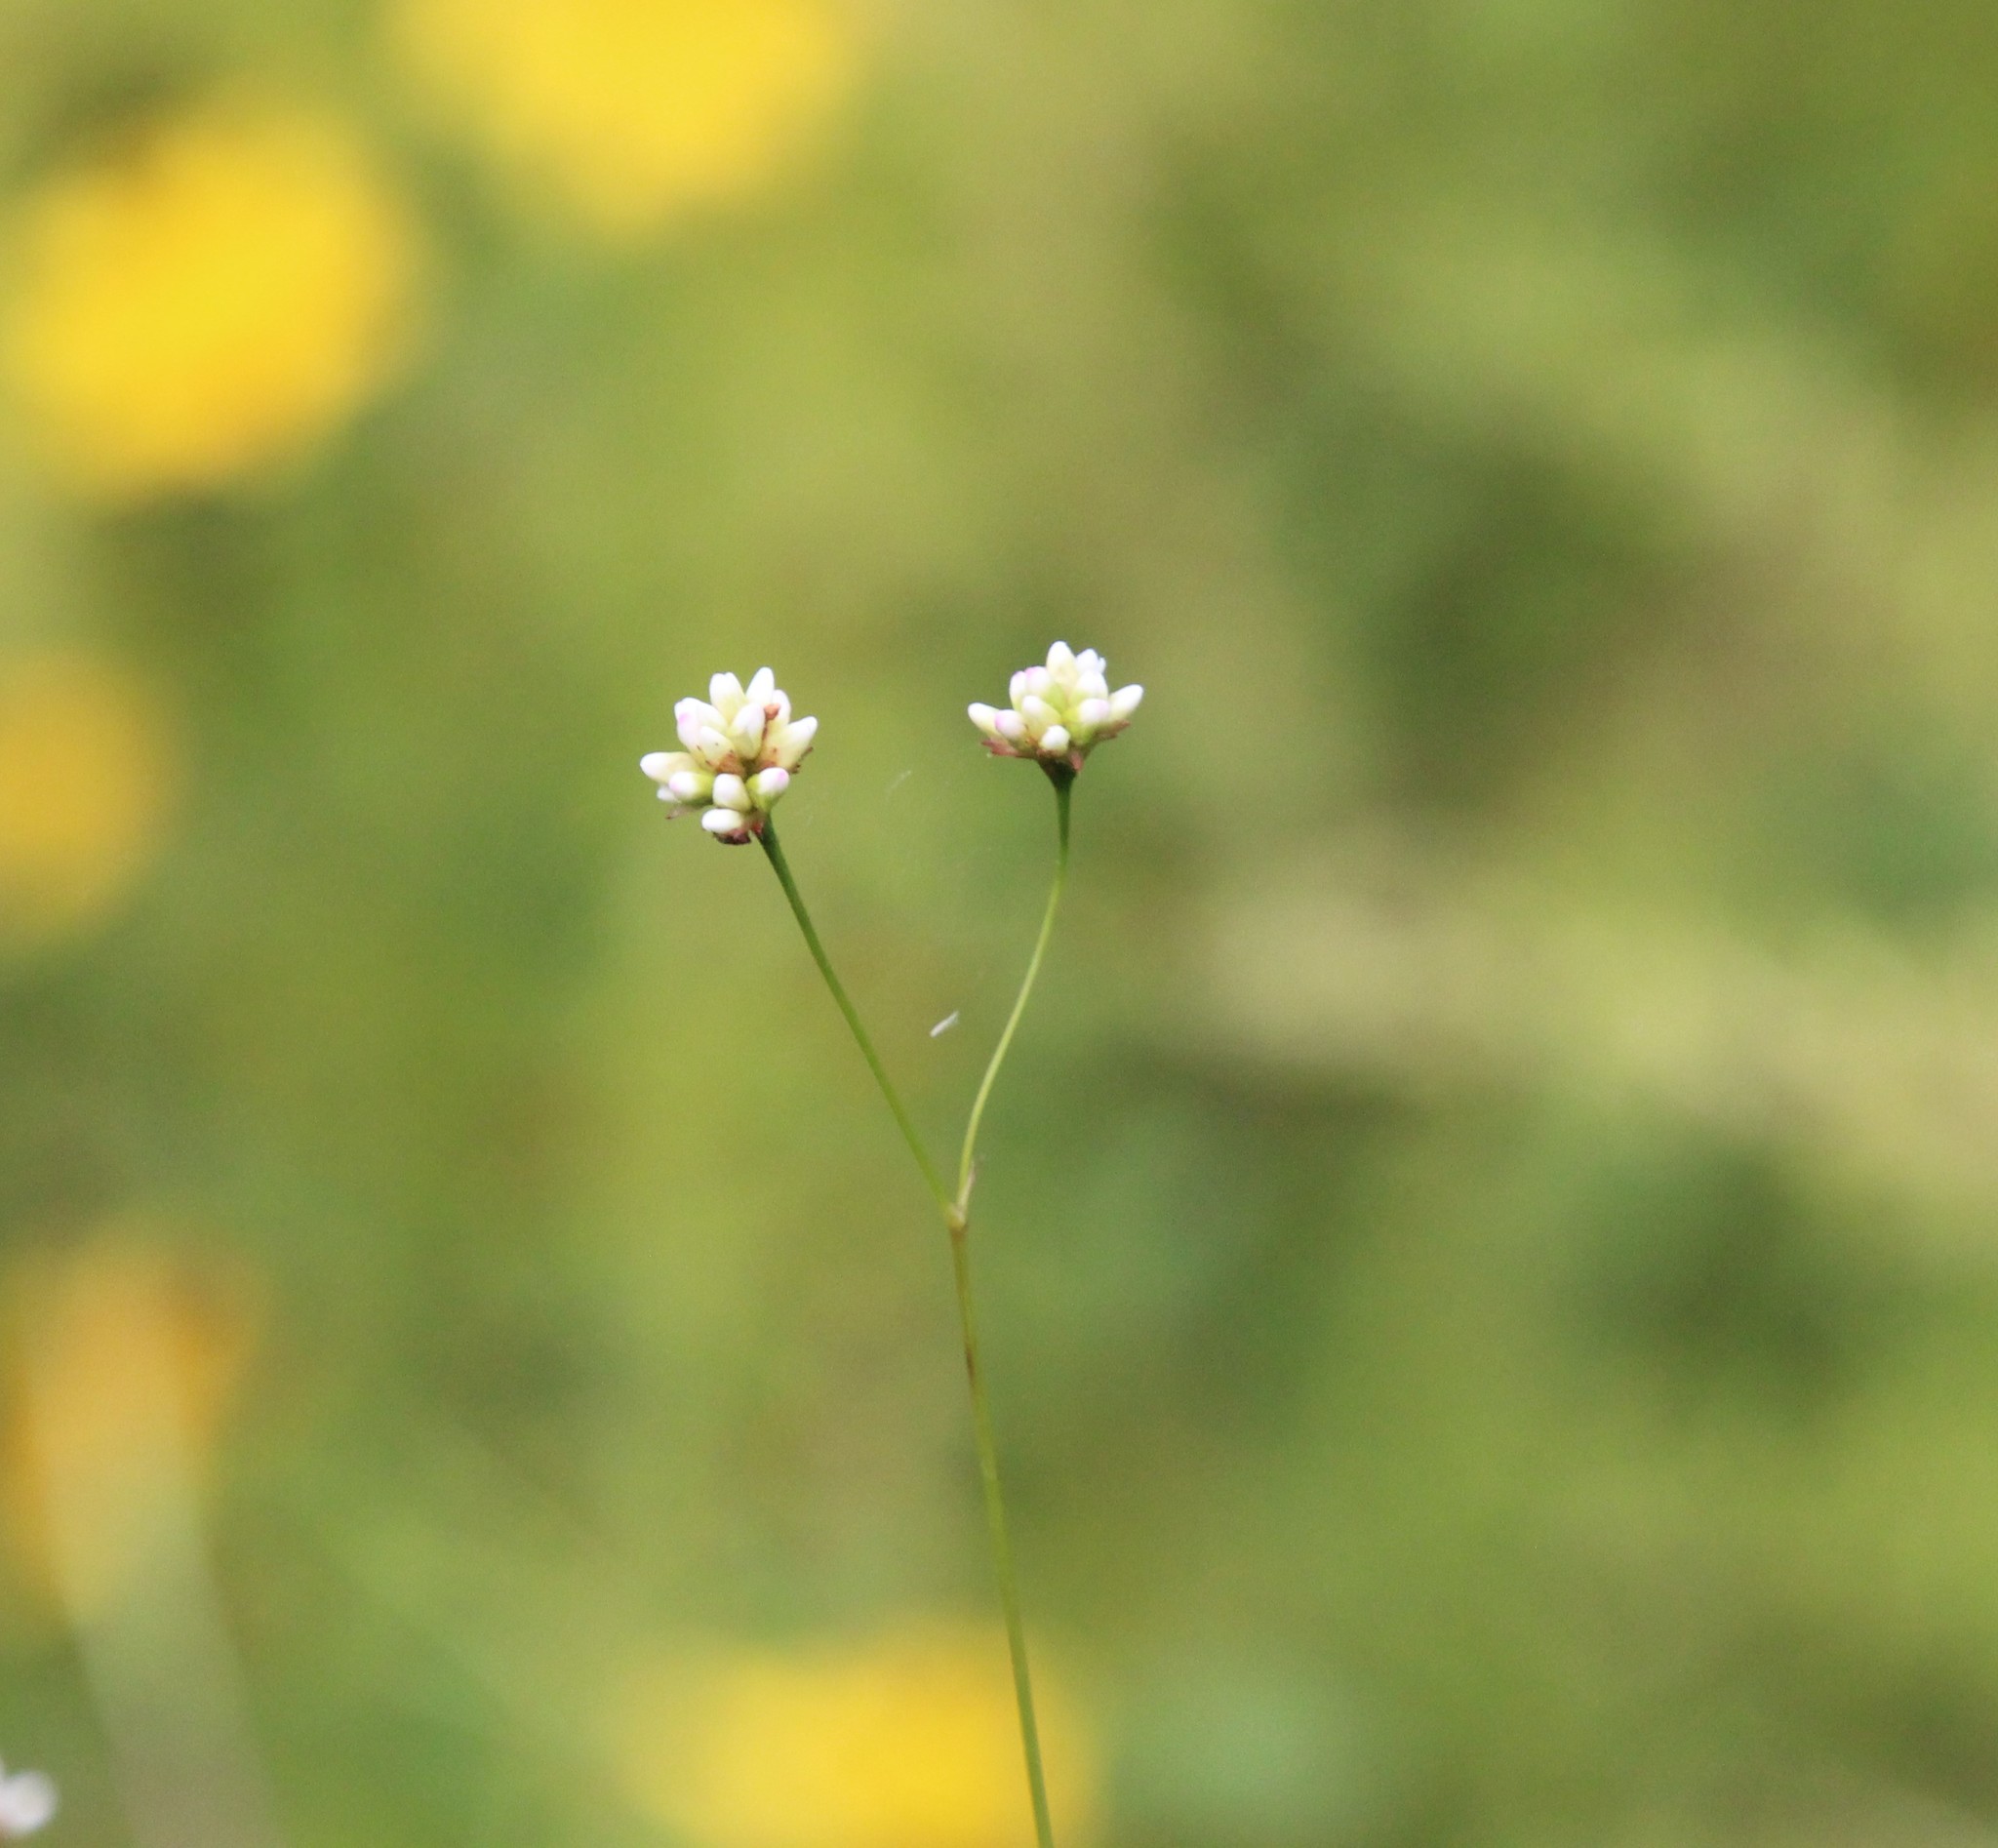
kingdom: Plantae
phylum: Tracheophyta
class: Magnoliopsida
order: Caryophyllales
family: Polygonaceae
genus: Persicaria
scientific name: Persicaria sagittata
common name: American tearthumb
